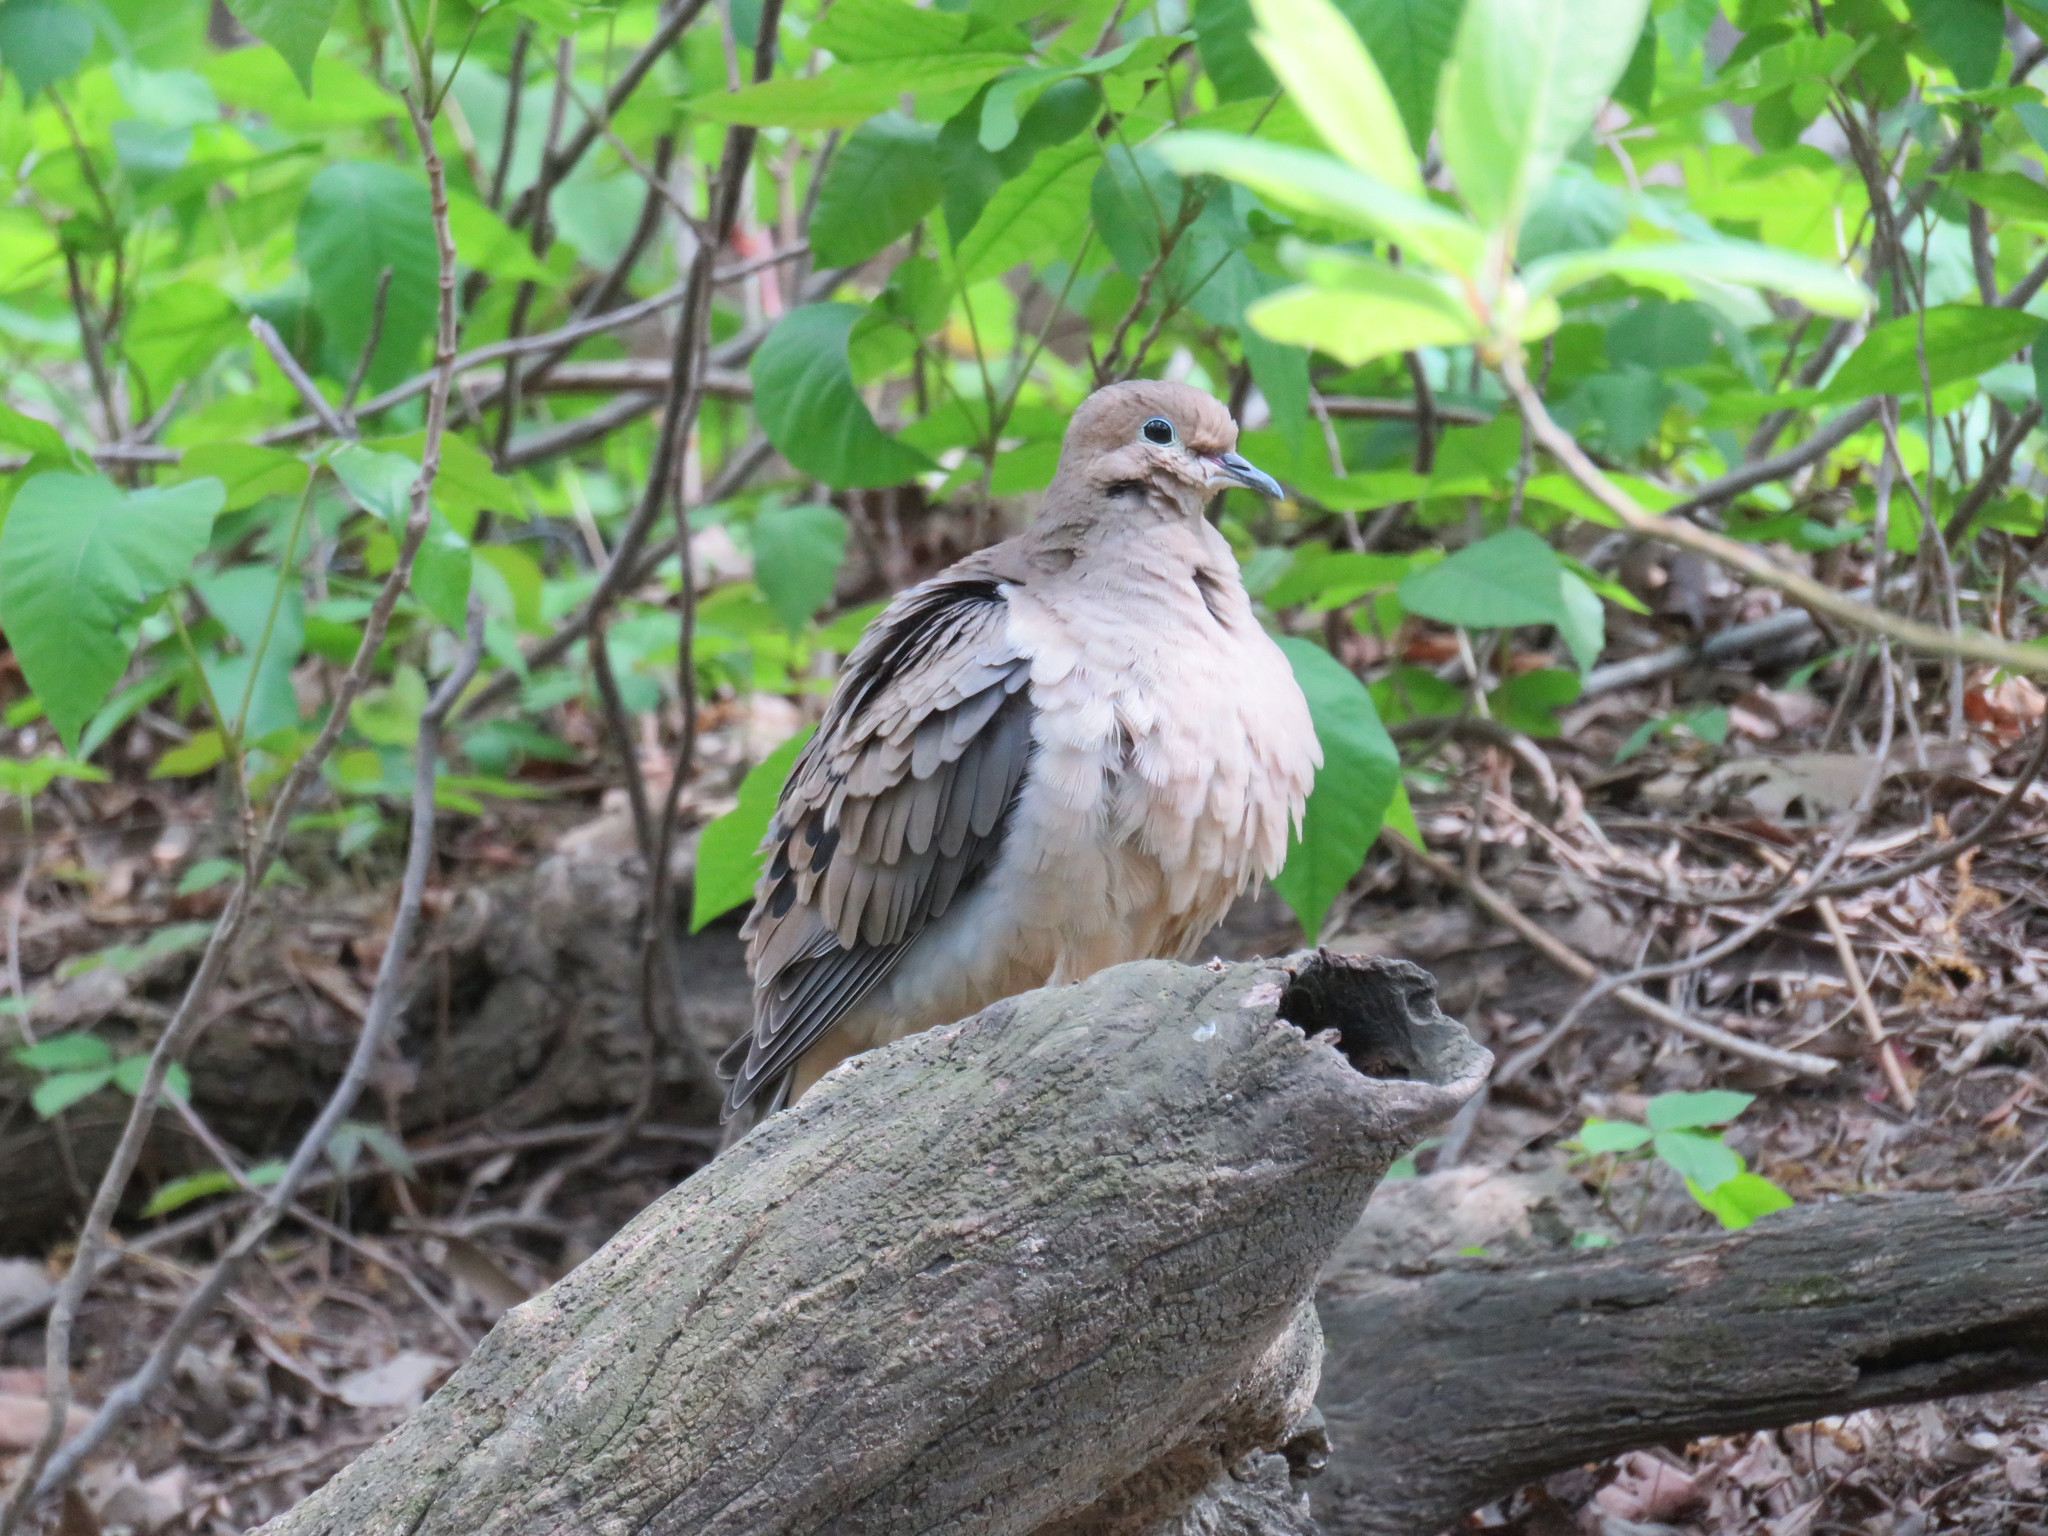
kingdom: Animalia
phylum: Chordata
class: Aves
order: Columbiformes
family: Columbidae
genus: Zenaida
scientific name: Zenaida macroura
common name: Mourning dove
